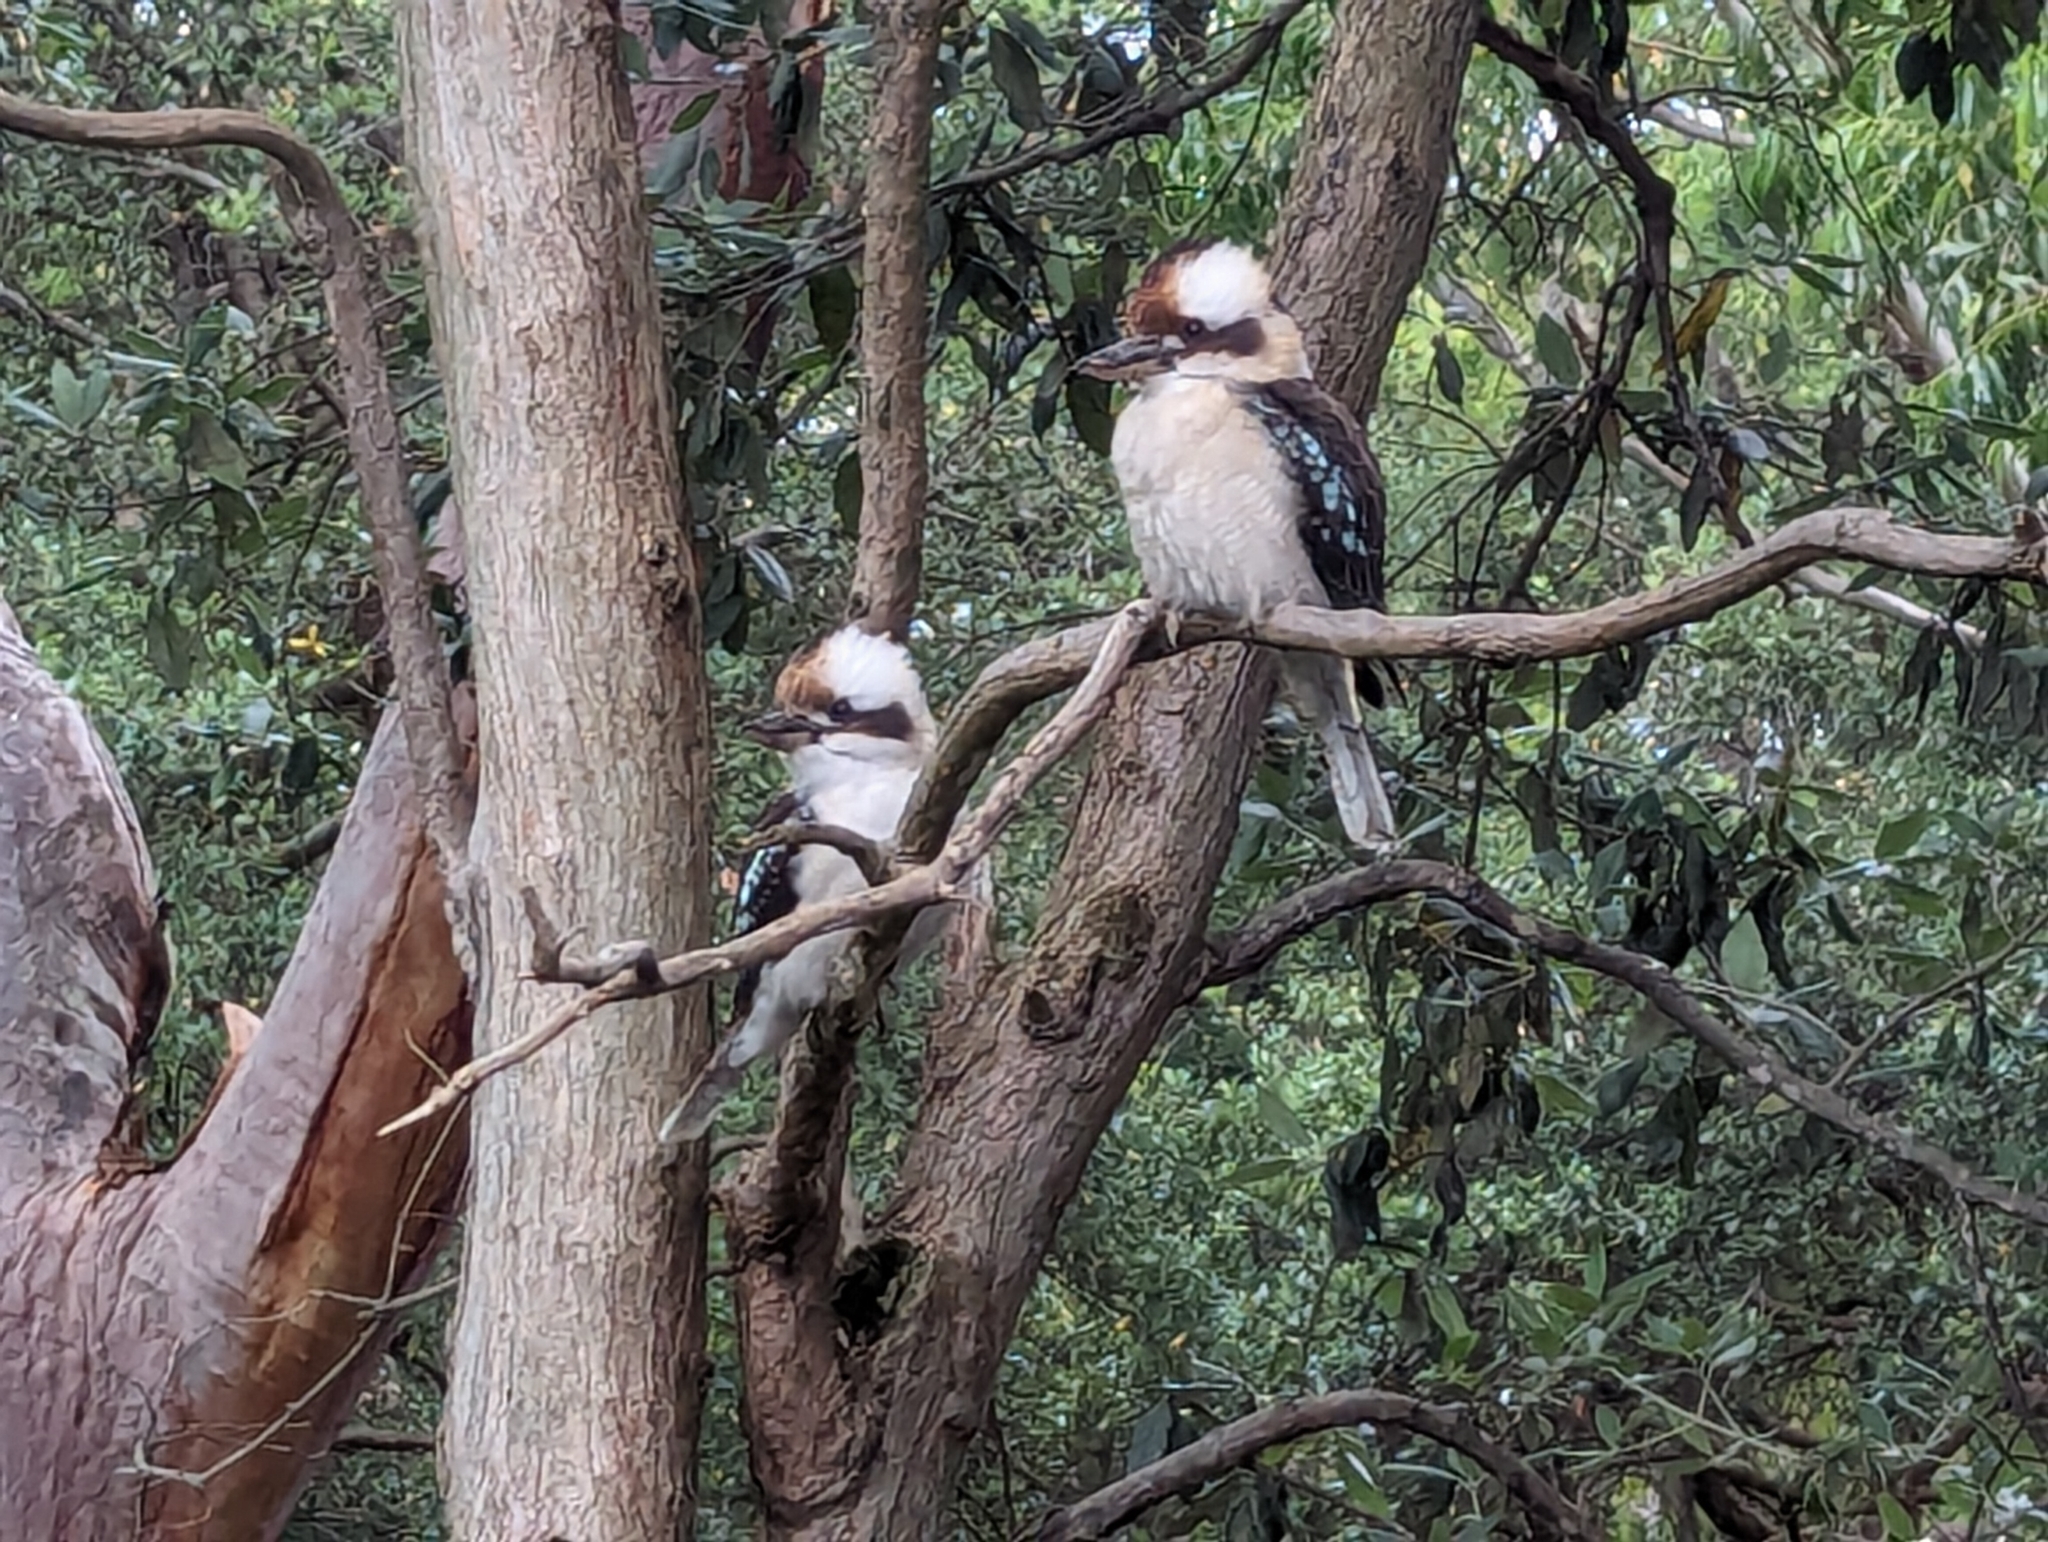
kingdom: Animalia
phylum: Chordata
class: Aves
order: Coraciiformes
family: Alcedinidae
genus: Dacelo
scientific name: Dacelo novaeguineae
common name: Laughing kookaburra
